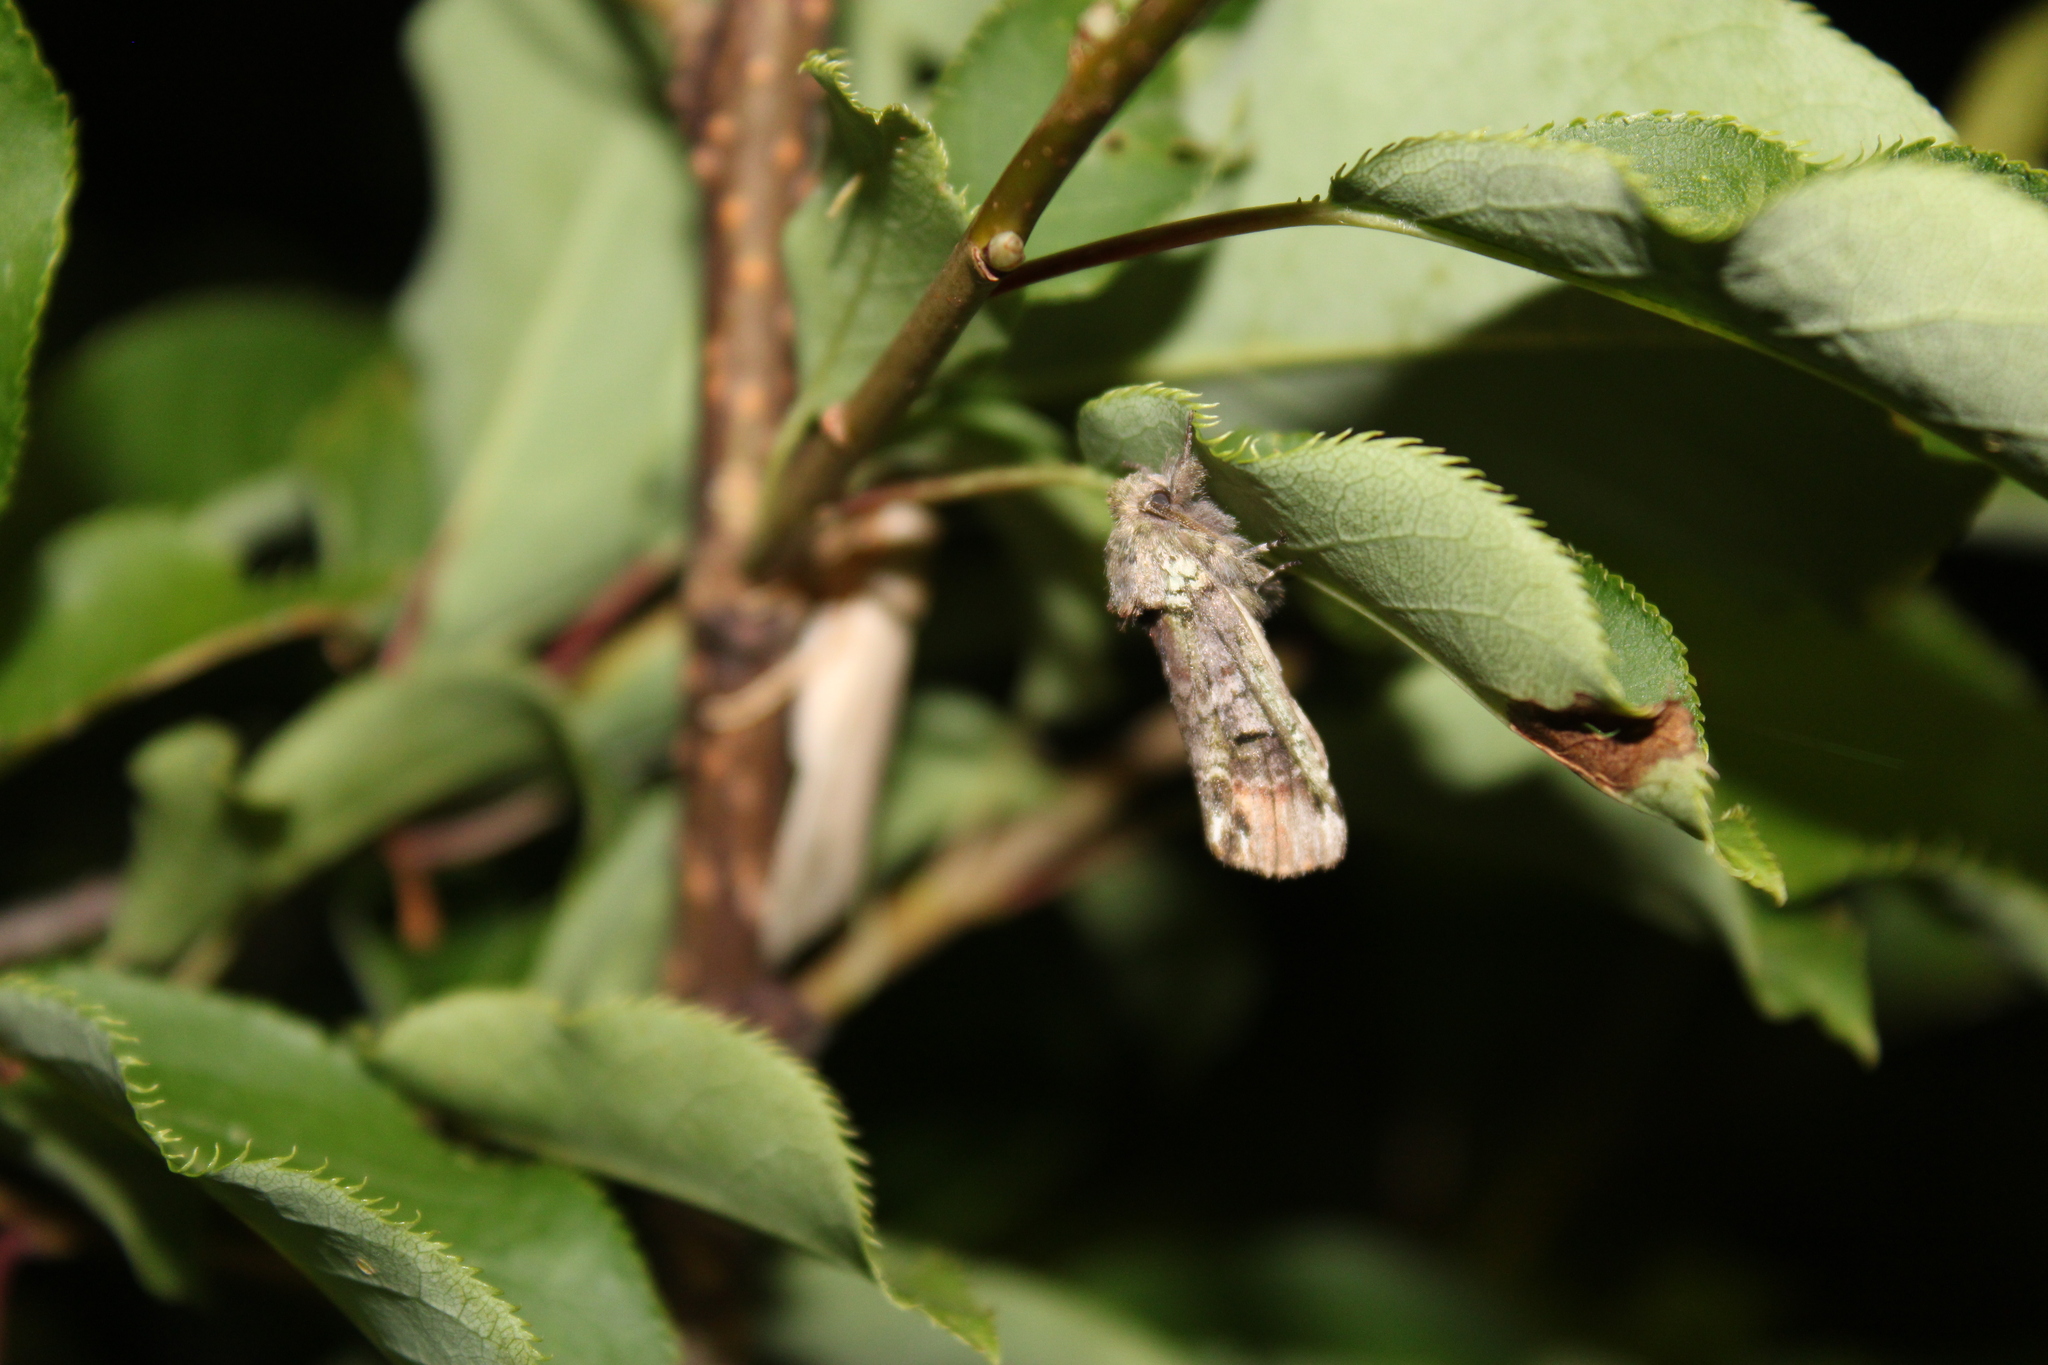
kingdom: Animalia
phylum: Arthropoda
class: Insecta
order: Lepidoptera
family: Notodontidae
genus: Schizura
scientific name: Schizura
